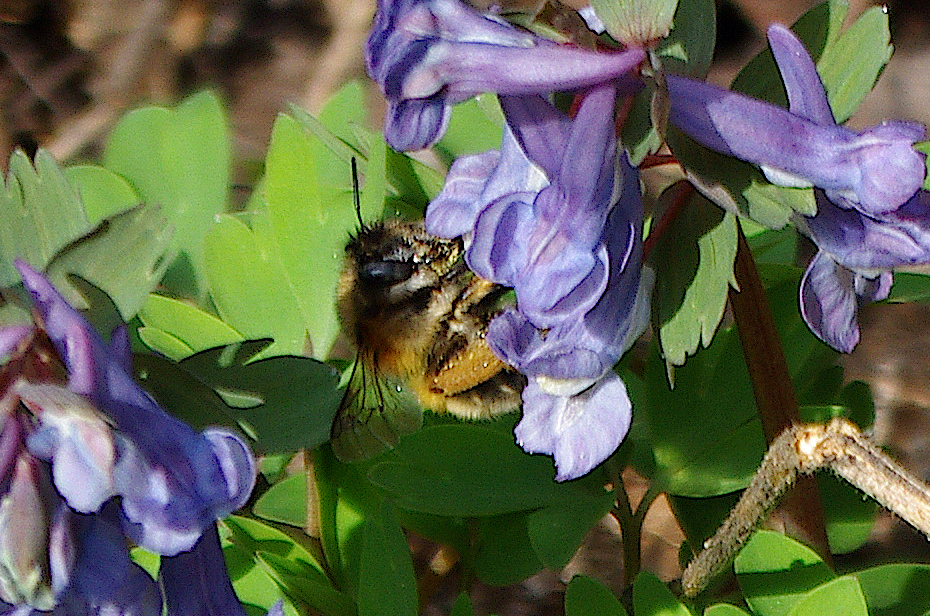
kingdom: Plantae
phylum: Tracheophyta
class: Magnoliopsida
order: Ranunculales
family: Papaveraceae
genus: Corydalis
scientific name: Corydalis solida
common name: Bird-in-a-bush
